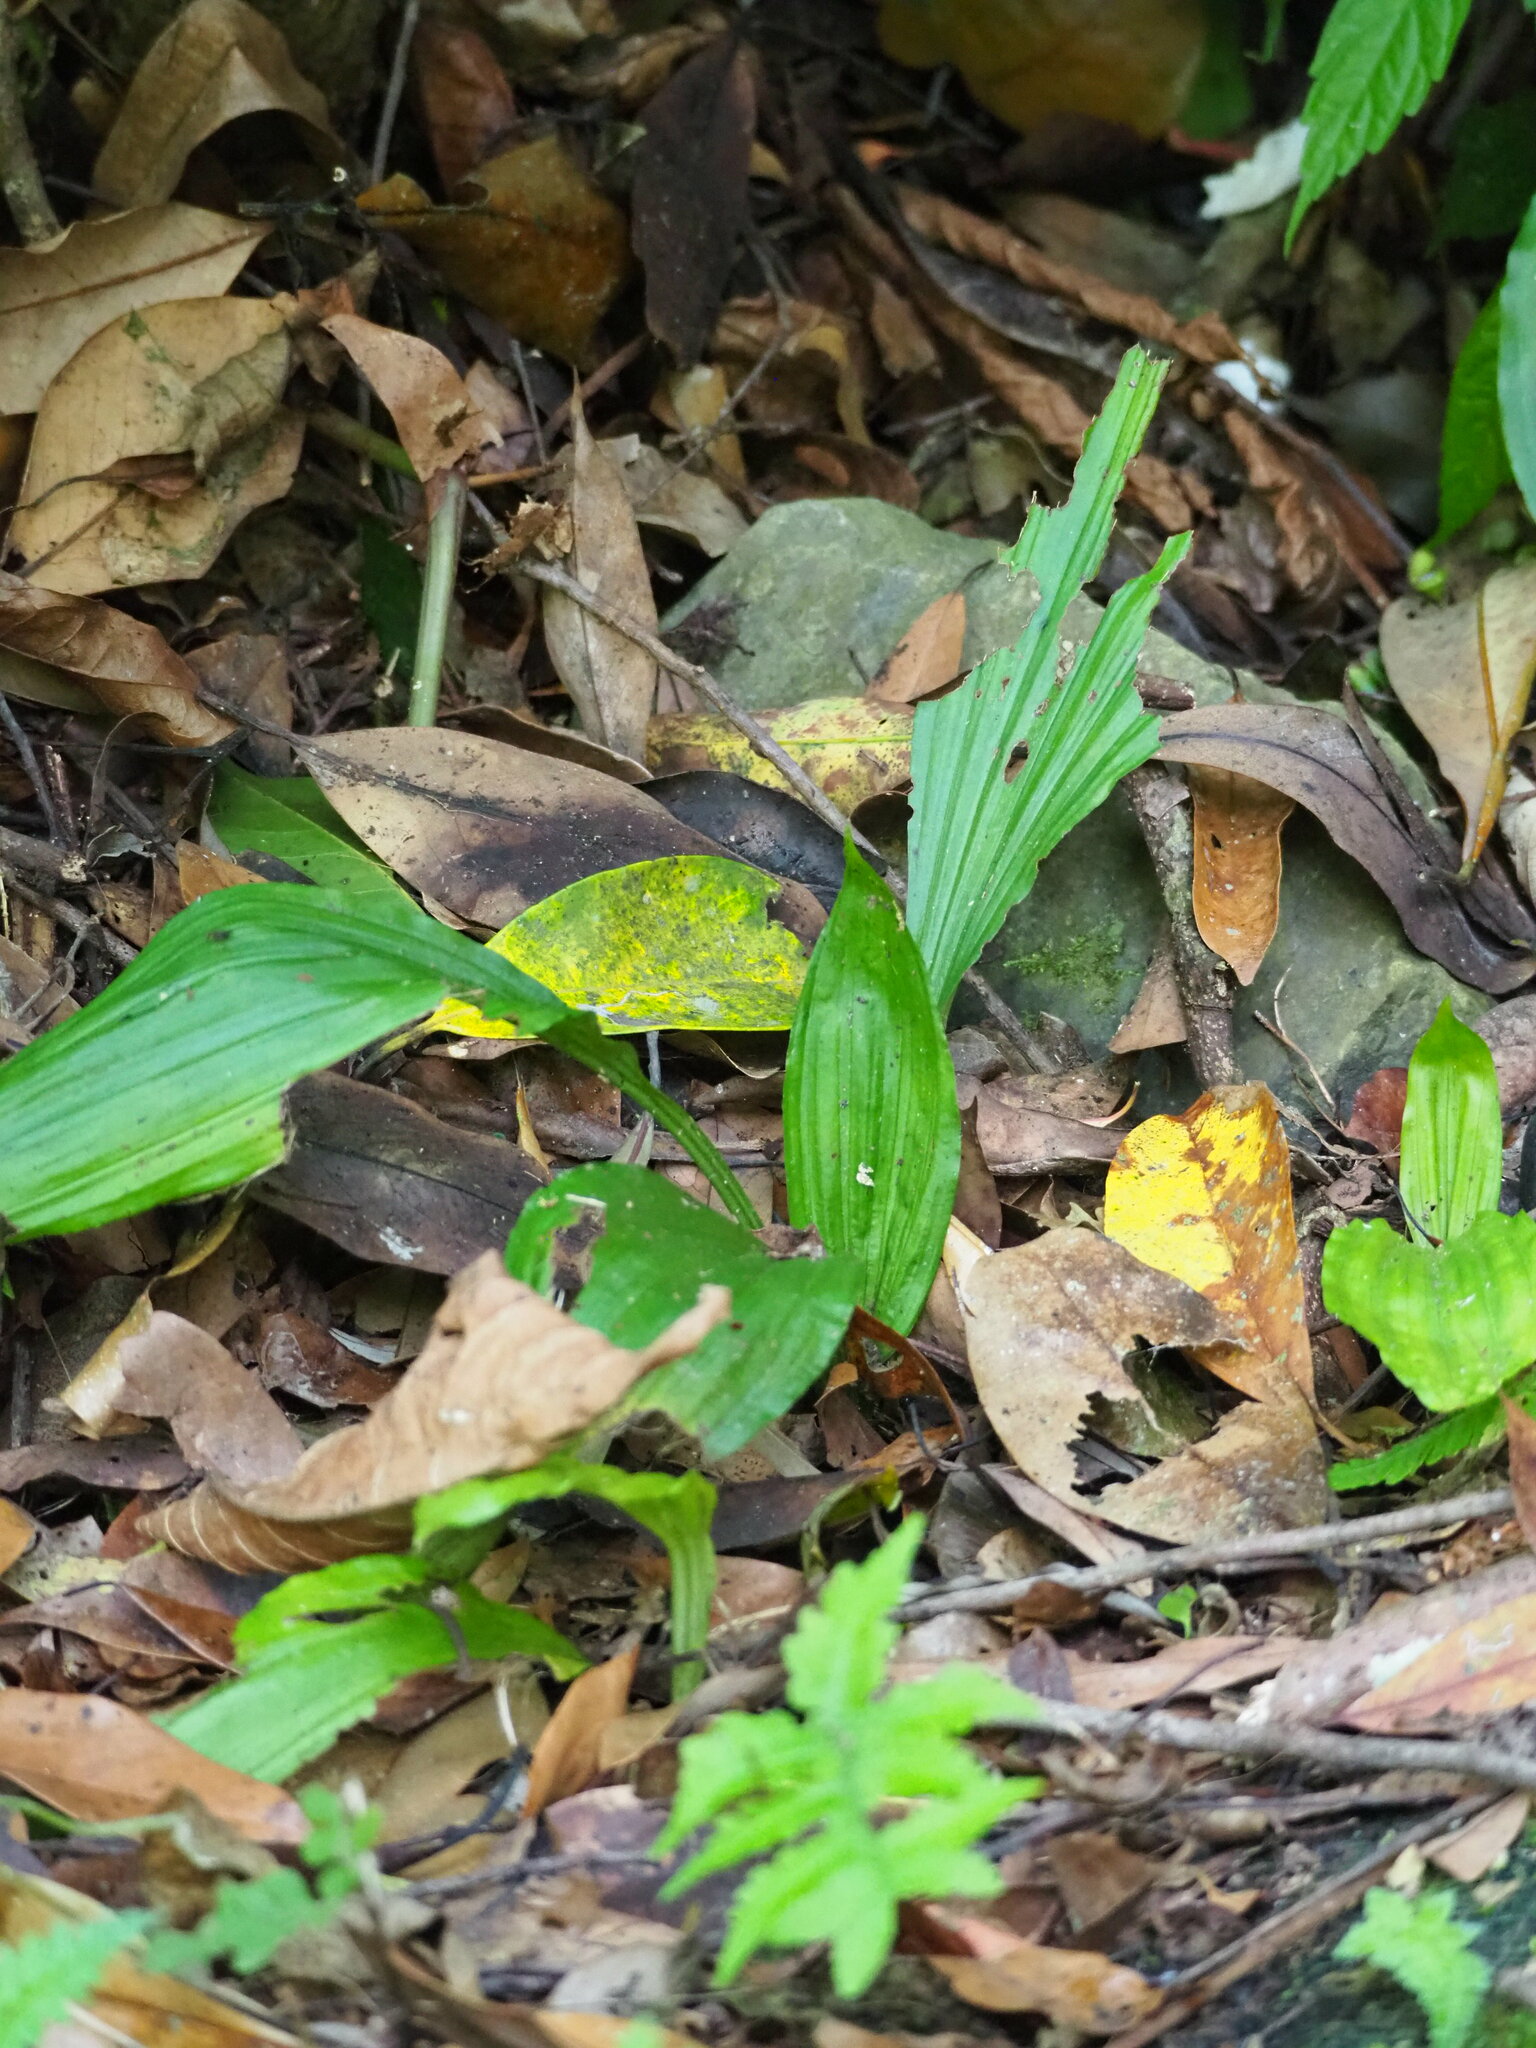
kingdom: Plantae
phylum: Tracheophyta
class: Liliopsida
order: Asparagales
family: Orchidaceae
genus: Calanthe
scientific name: Calanthe triplicata
